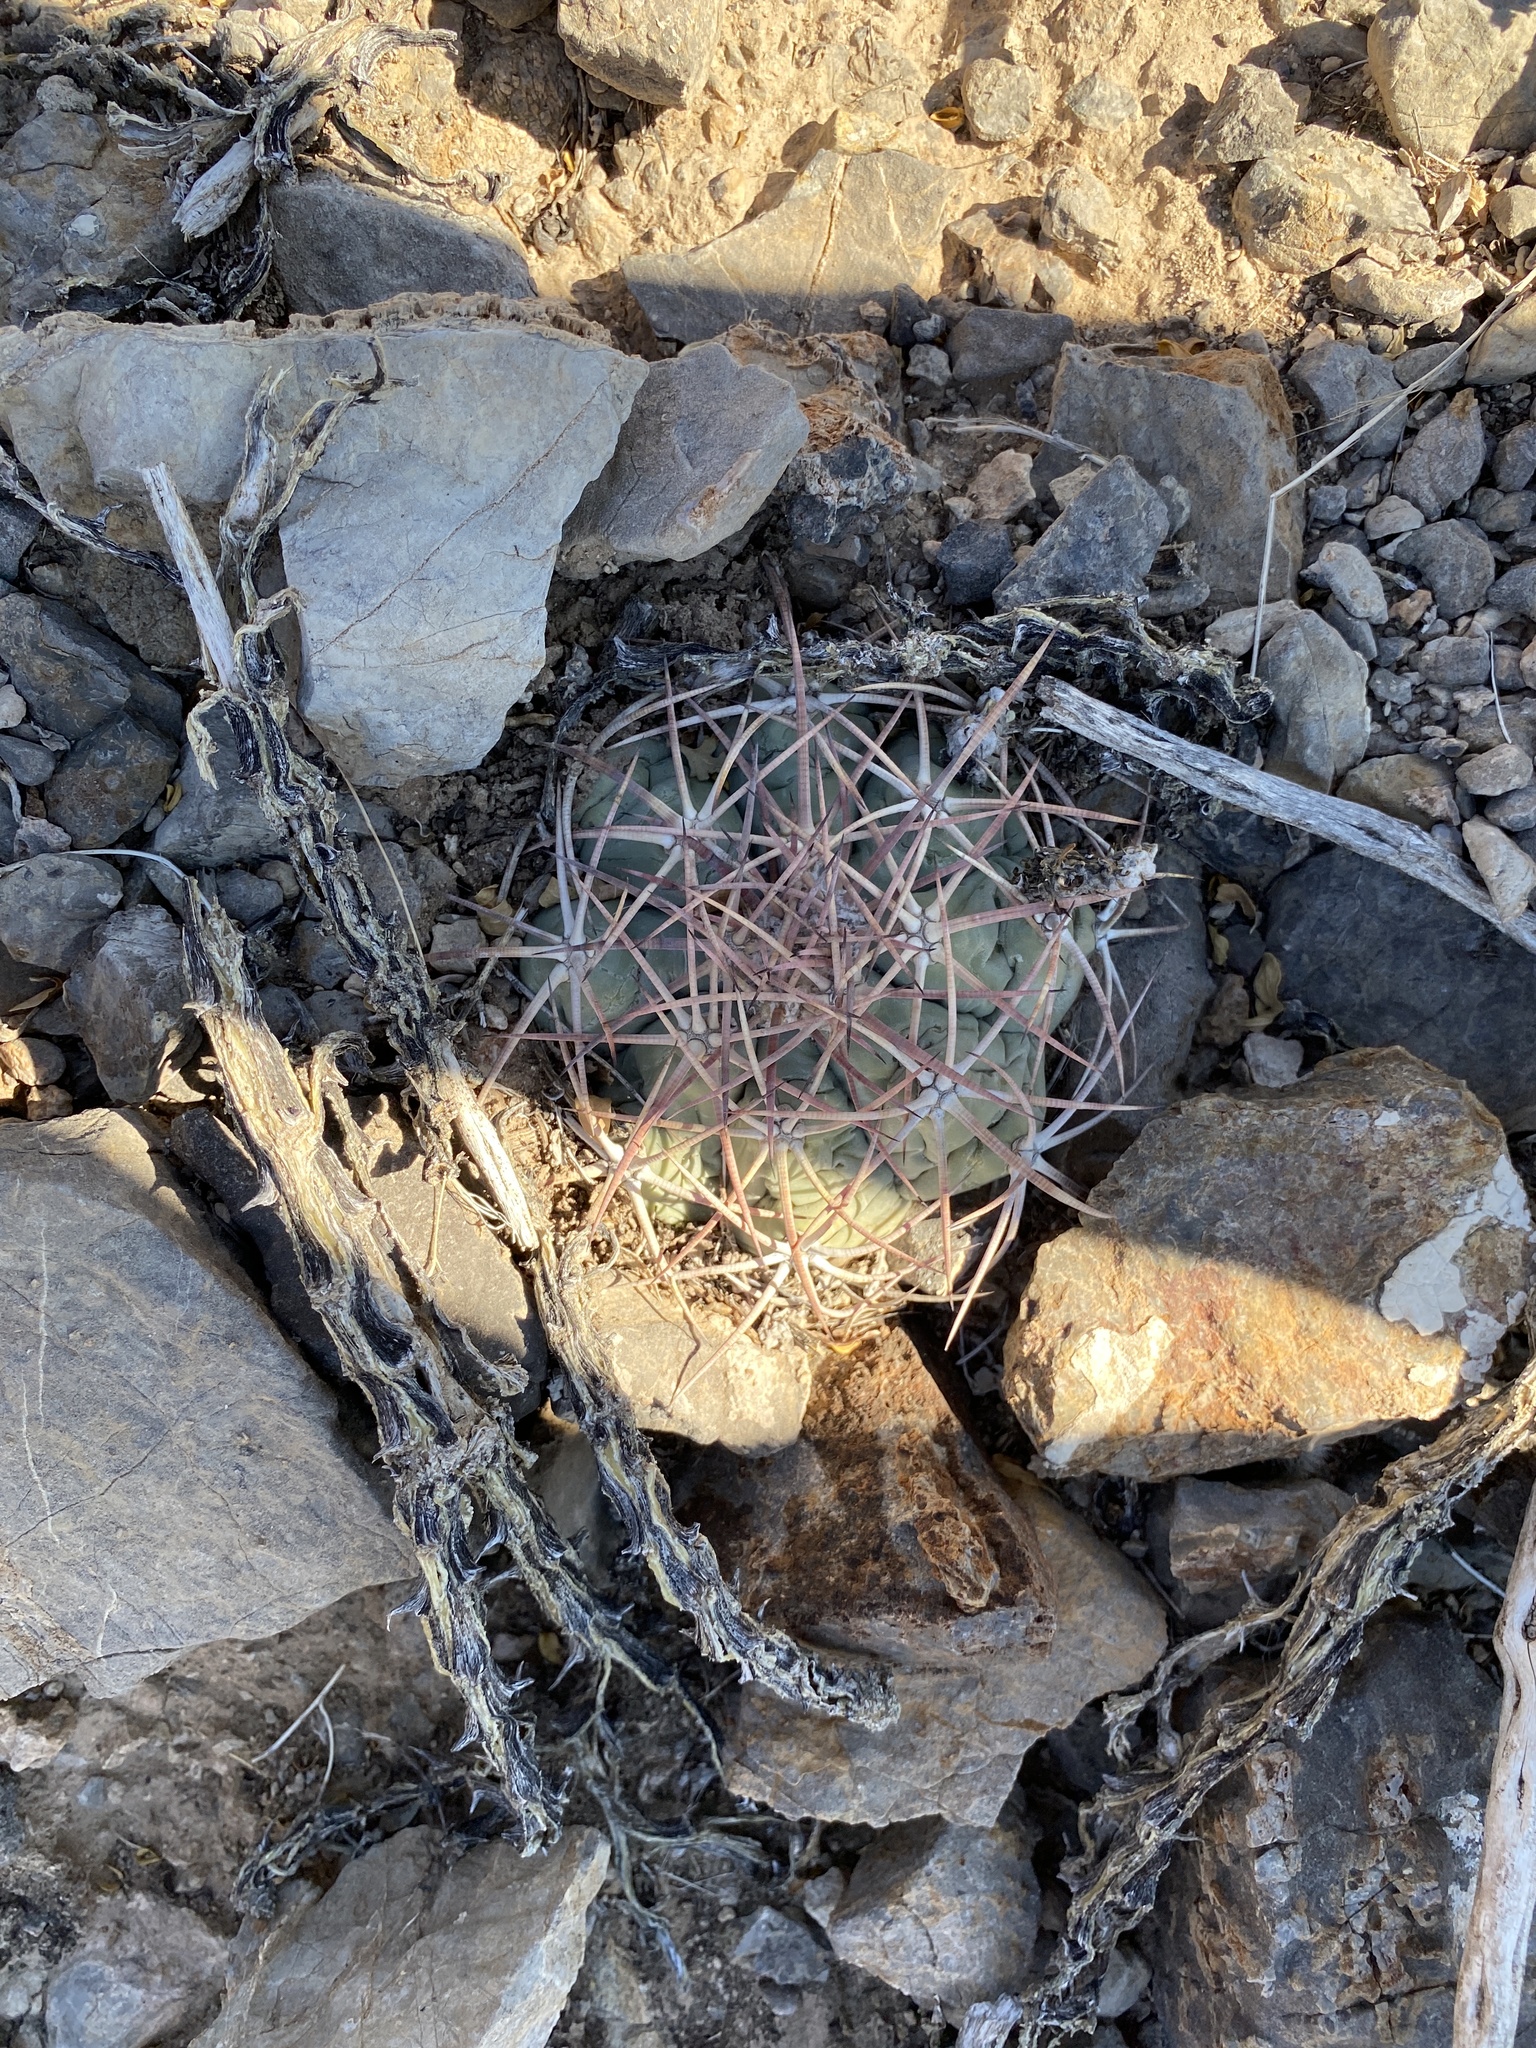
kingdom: Plantae
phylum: Tracheophyta
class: Magnoliopsida
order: Caryophyllales
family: Cactaceae
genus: Echinocactus
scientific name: Echinocactus horizonthalonius
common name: Devilshead
